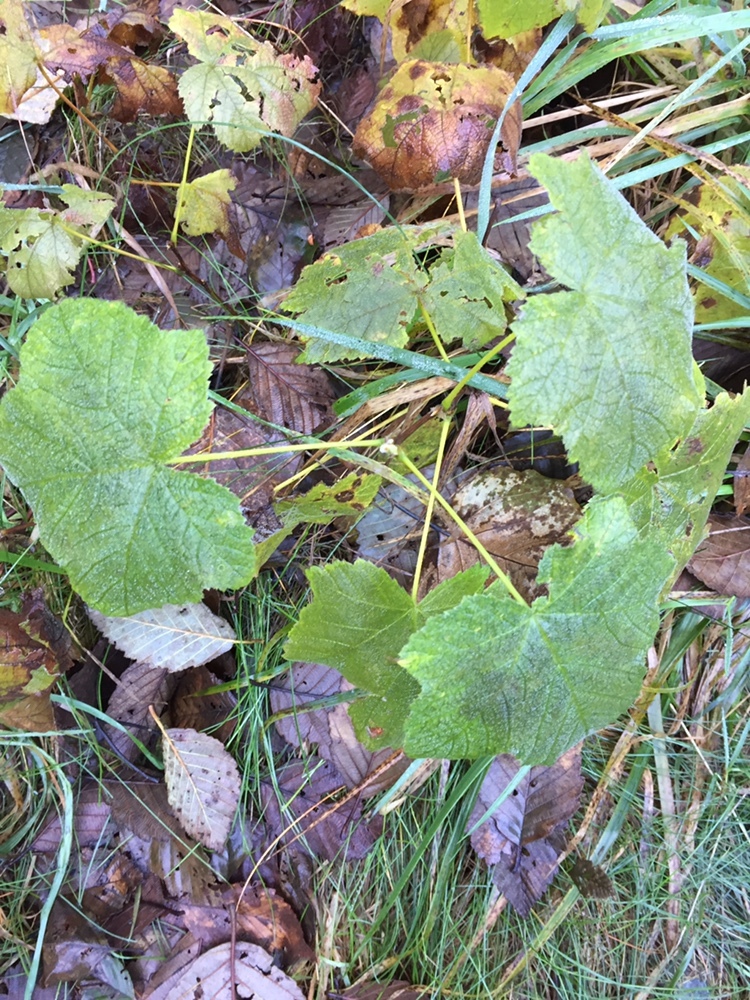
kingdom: Plantae
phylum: Tracheophyta
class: Magnoliopsida
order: Rosales
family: Rosaceae
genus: Rubus
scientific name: Rubus parviflorus
